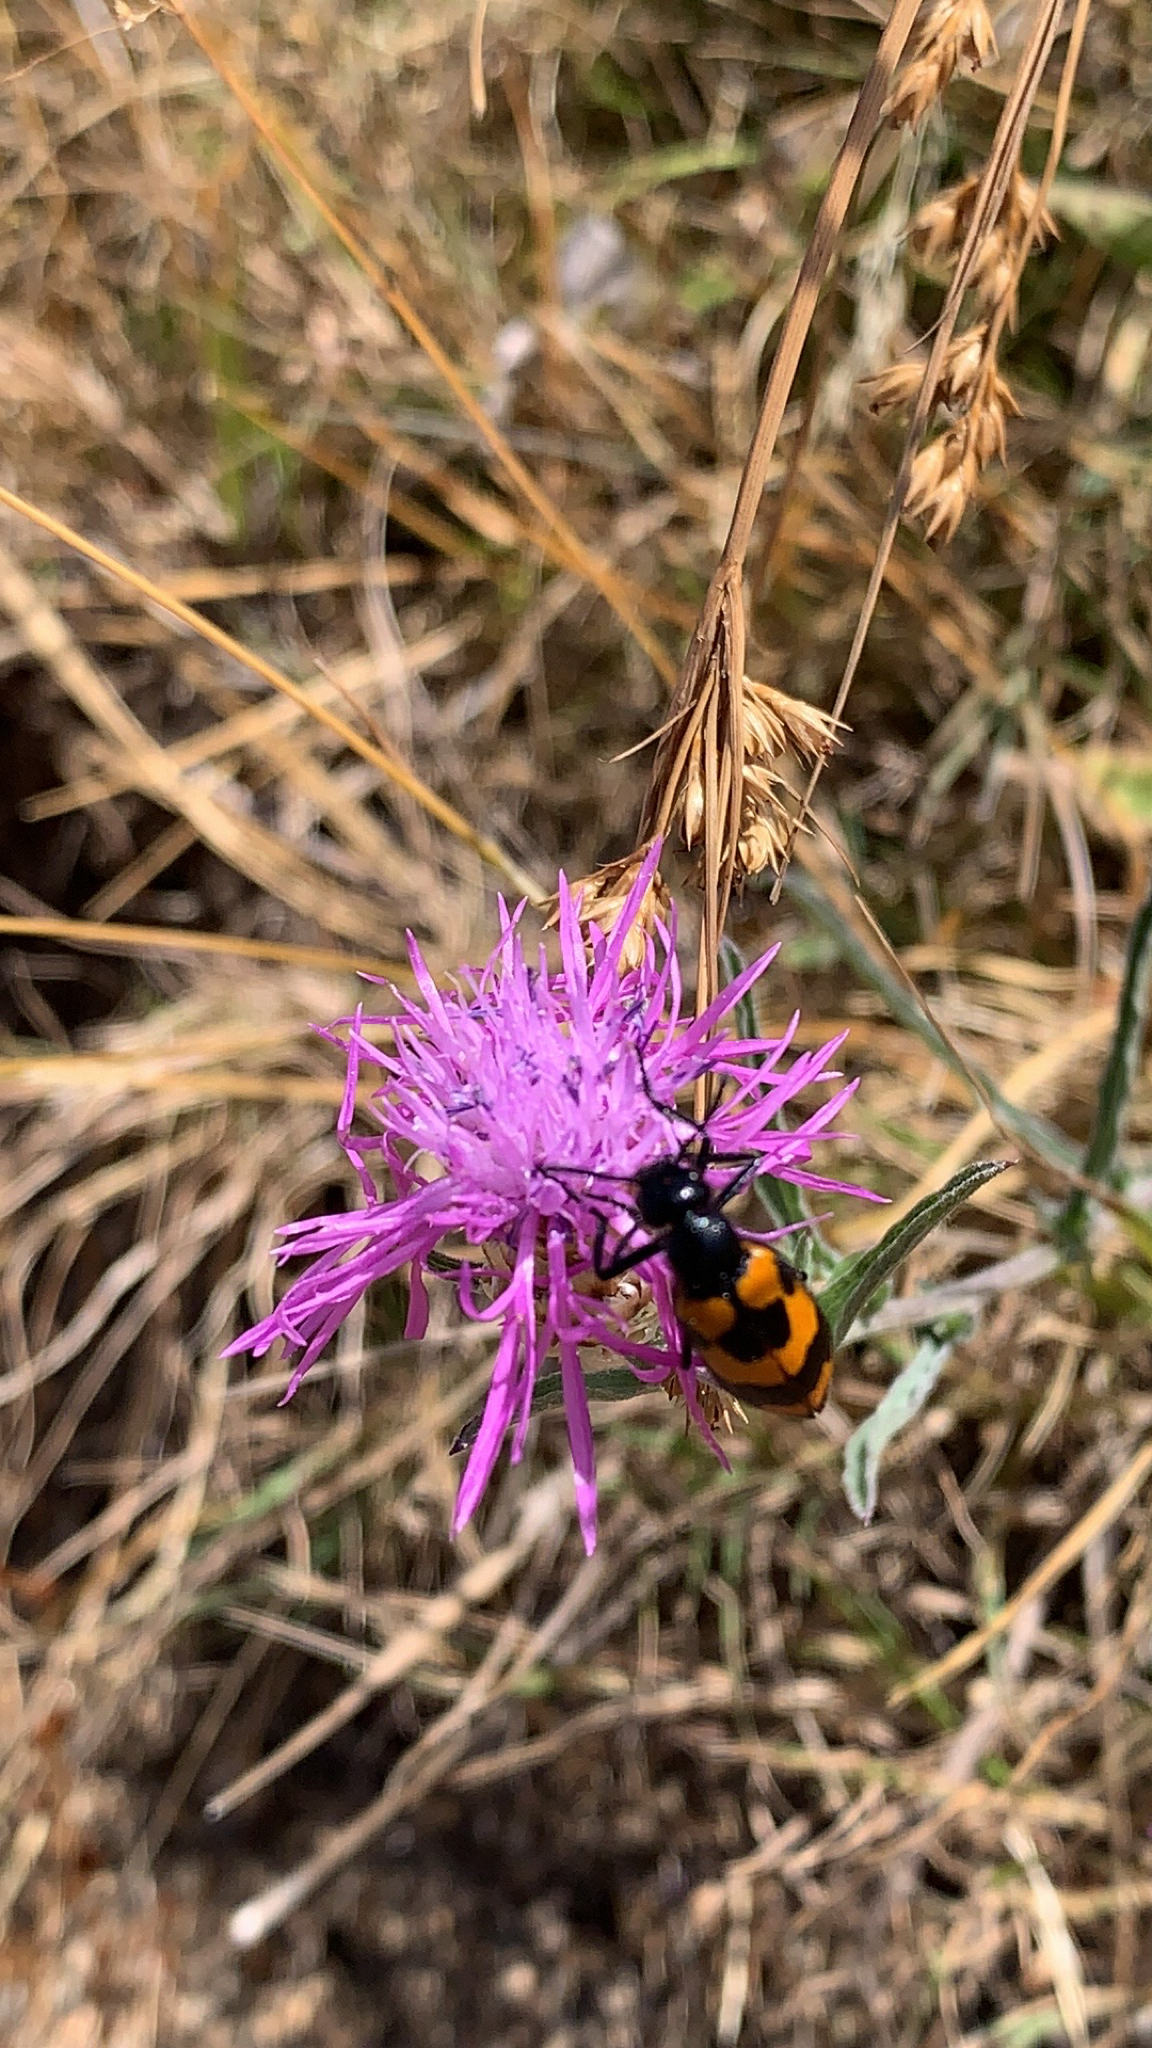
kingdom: Animalia
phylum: Arthropoda
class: Insecta
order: Coleoptera
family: Meloidae
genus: Mylabris
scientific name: Mylabris variabilis
